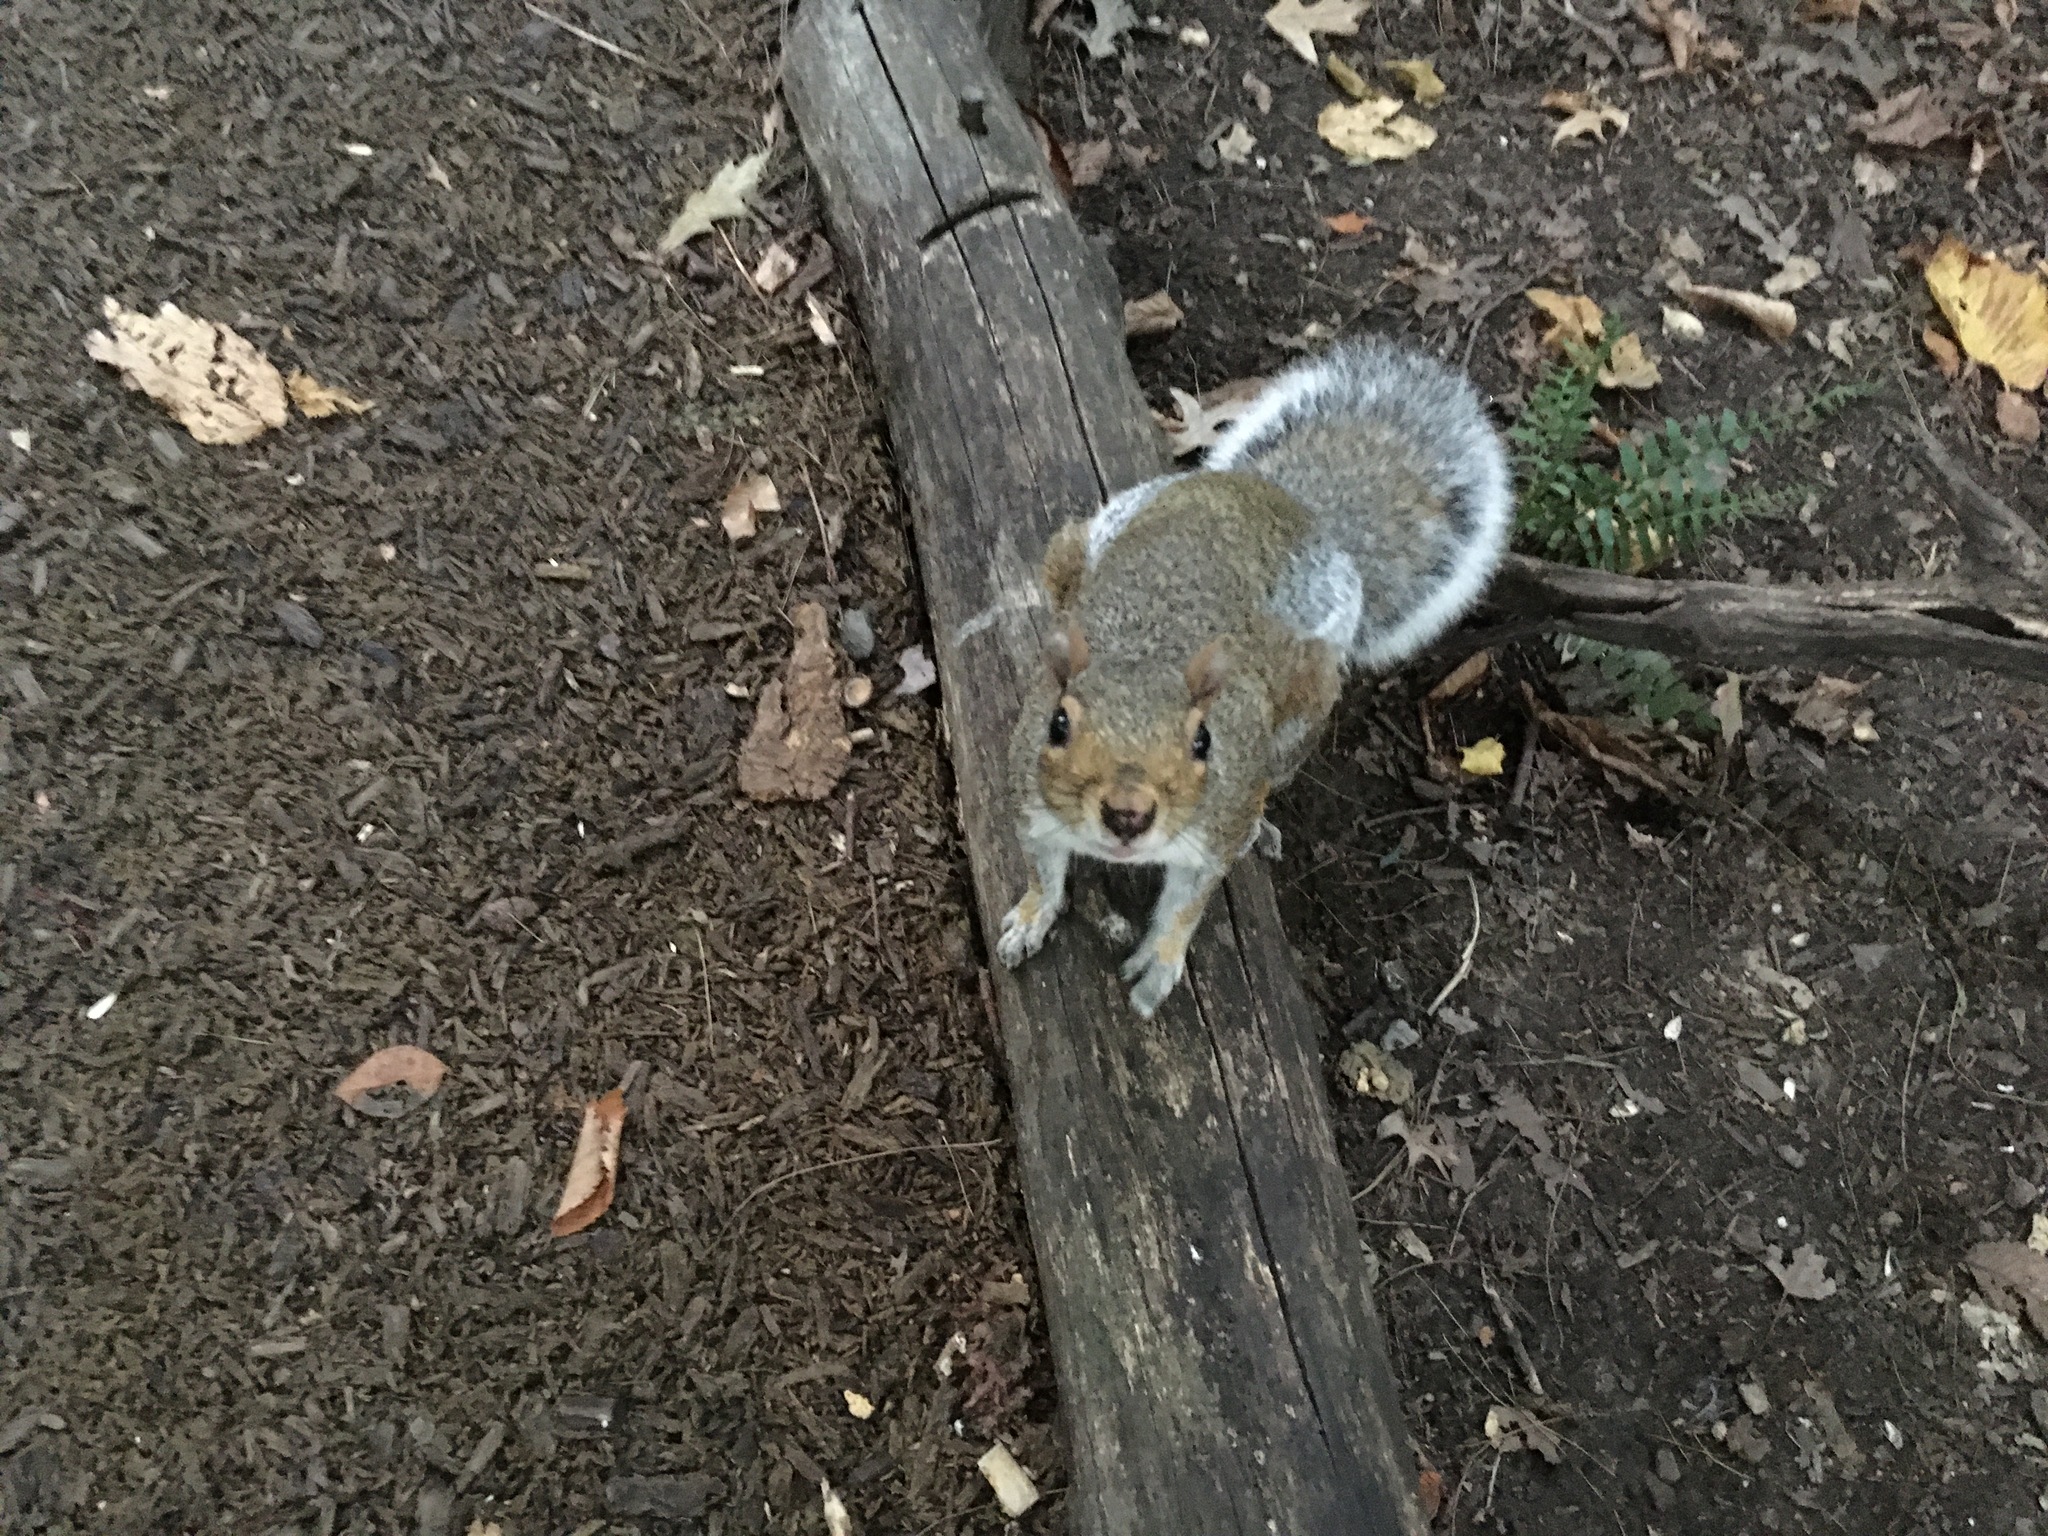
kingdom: Animalia
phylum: Chordata
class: Mammalia
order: Rodentia
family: Sciuridae
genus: Sciurus
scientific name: Sciurus carolinensis
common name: Eastern gray squirrel
